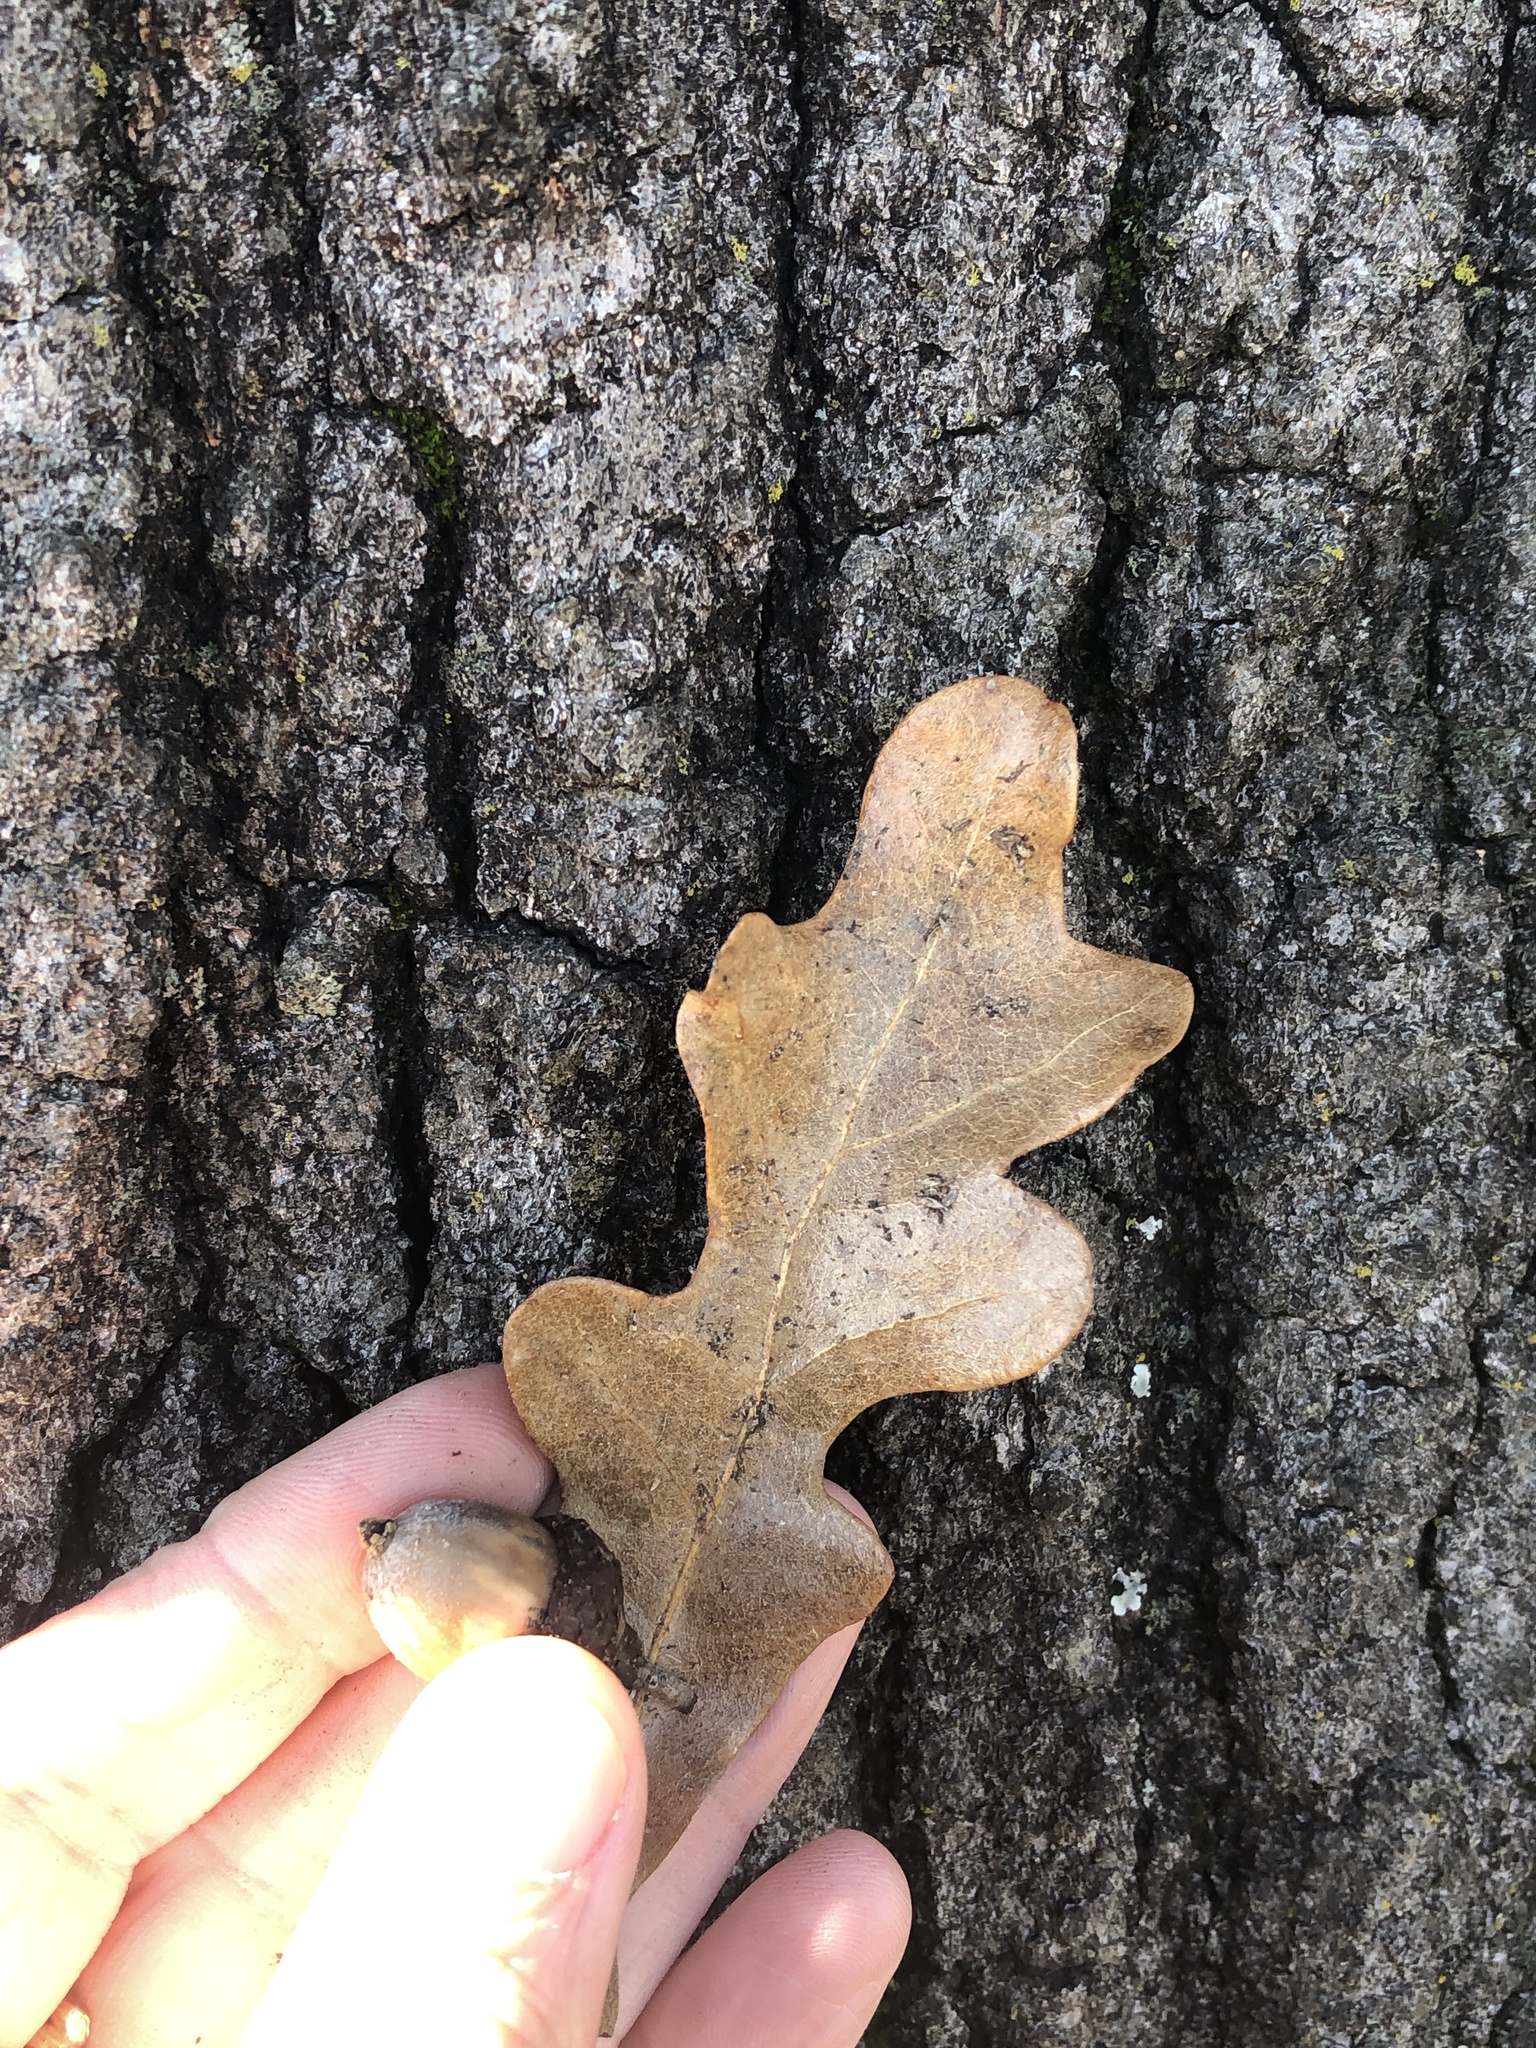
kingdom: Plantae
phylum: Tracheophyta
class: Magnoliopsida
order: Fagales
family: Fagaceae
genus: Quercus
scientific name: Quercus stellata
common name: Post oak
